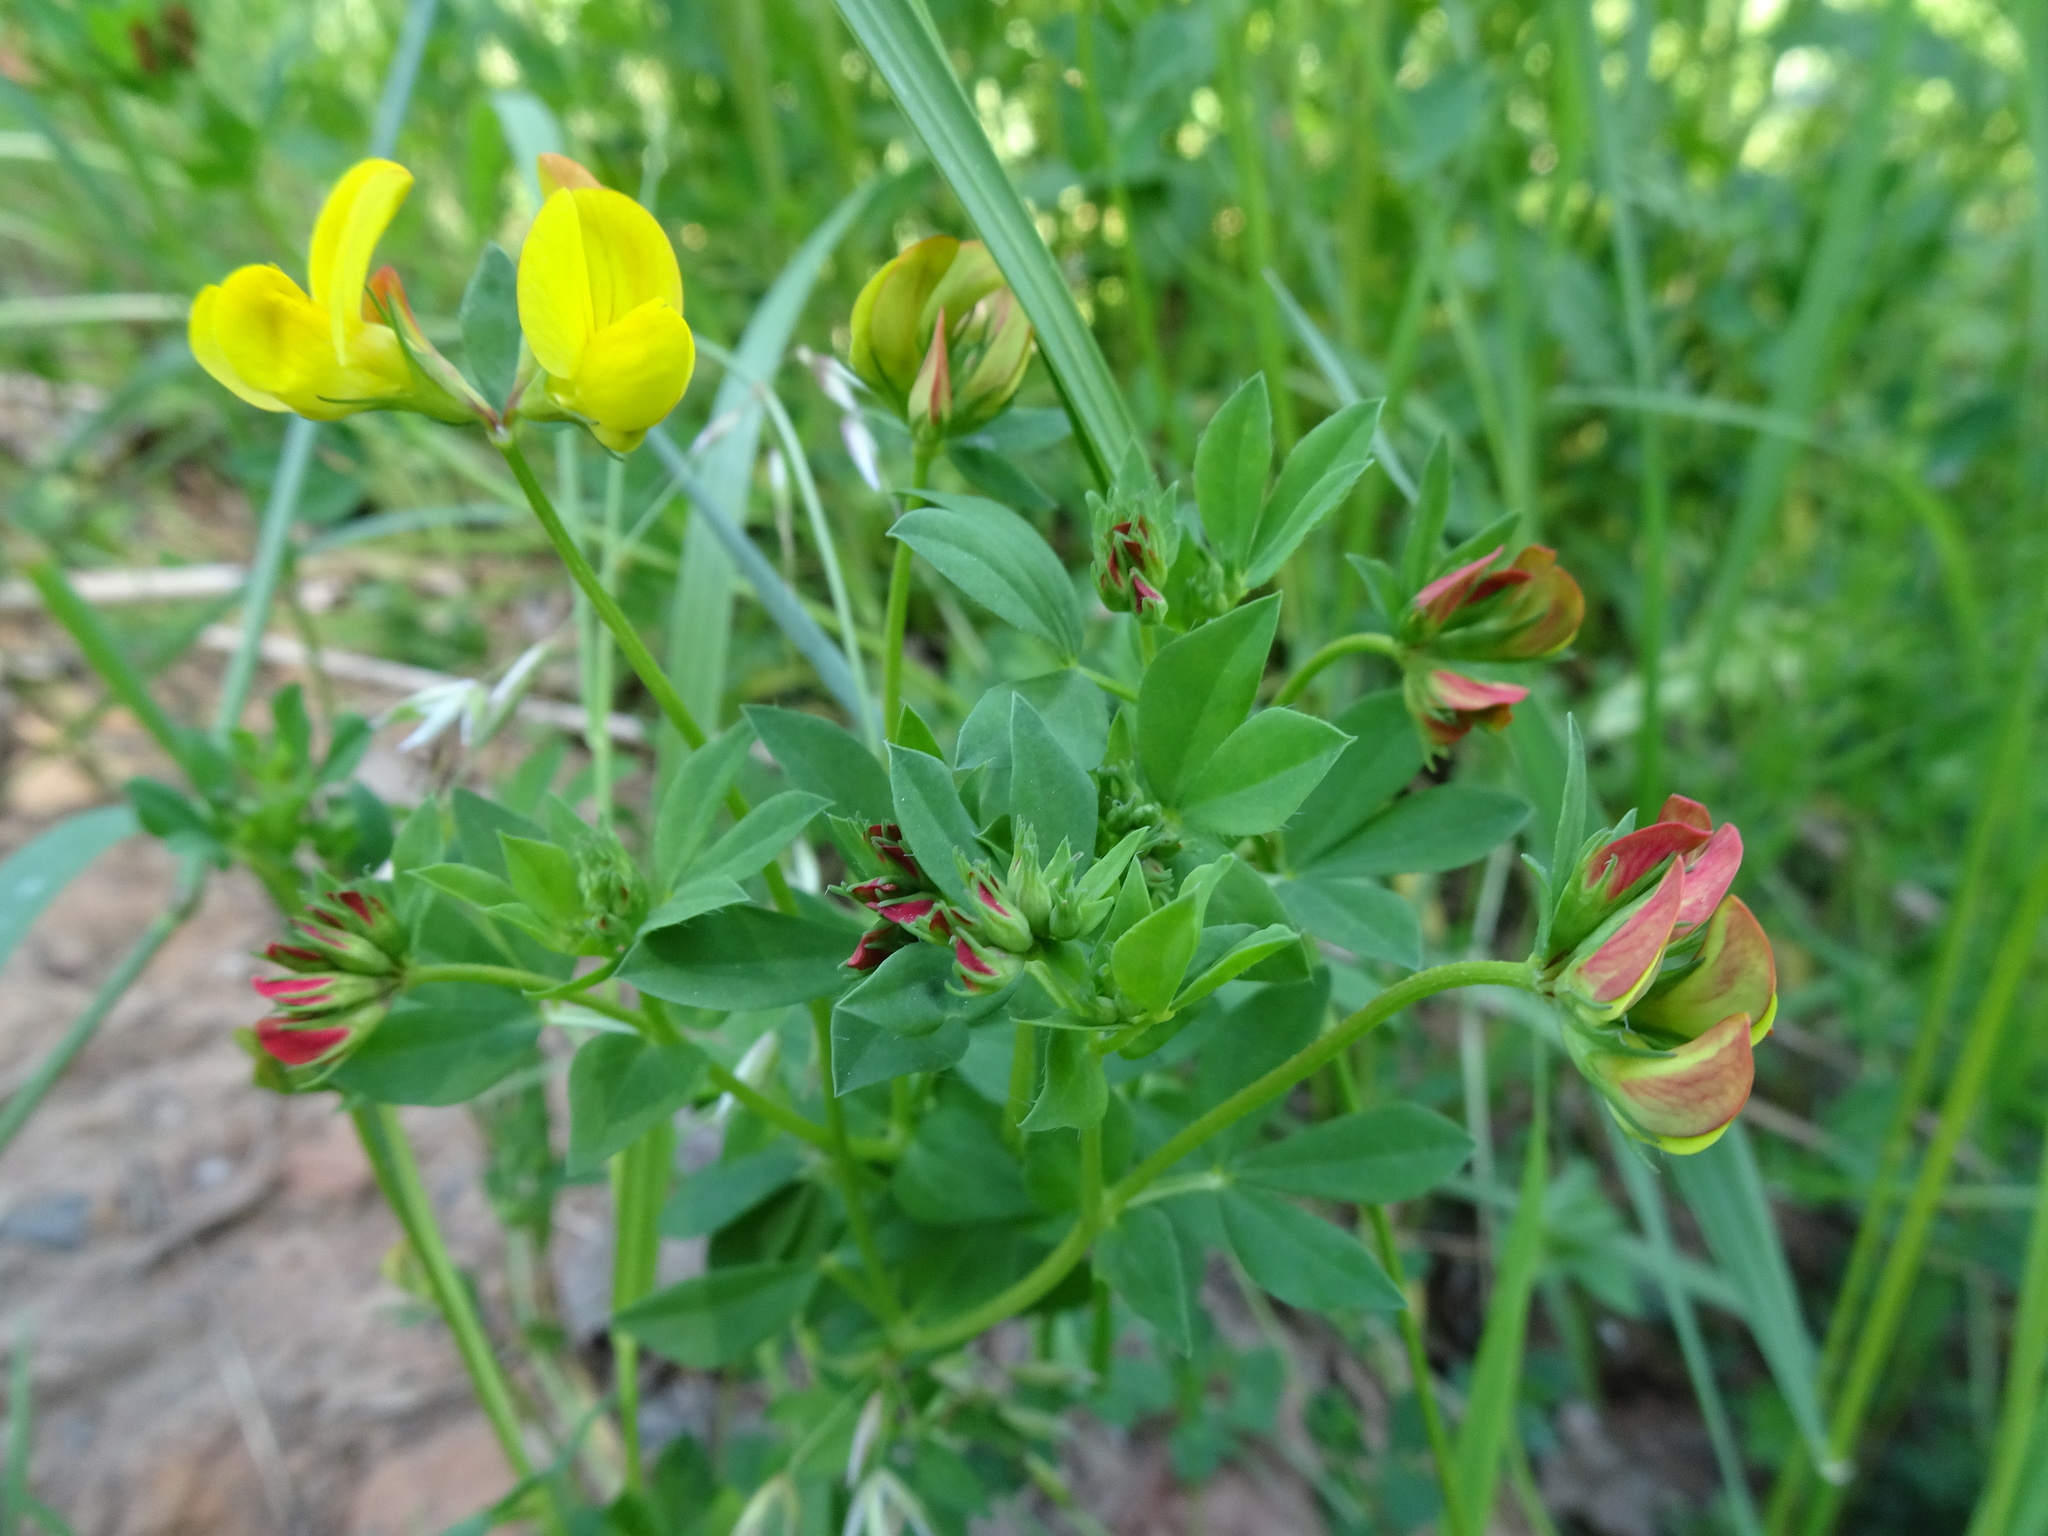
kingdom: Plantae
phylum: Tracheophyta
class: Magnoliopsida
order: Fabales
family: Fabaceae
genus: Lotus
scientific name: Lotus corniculatus
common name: Common bird's-foot-trefoil
